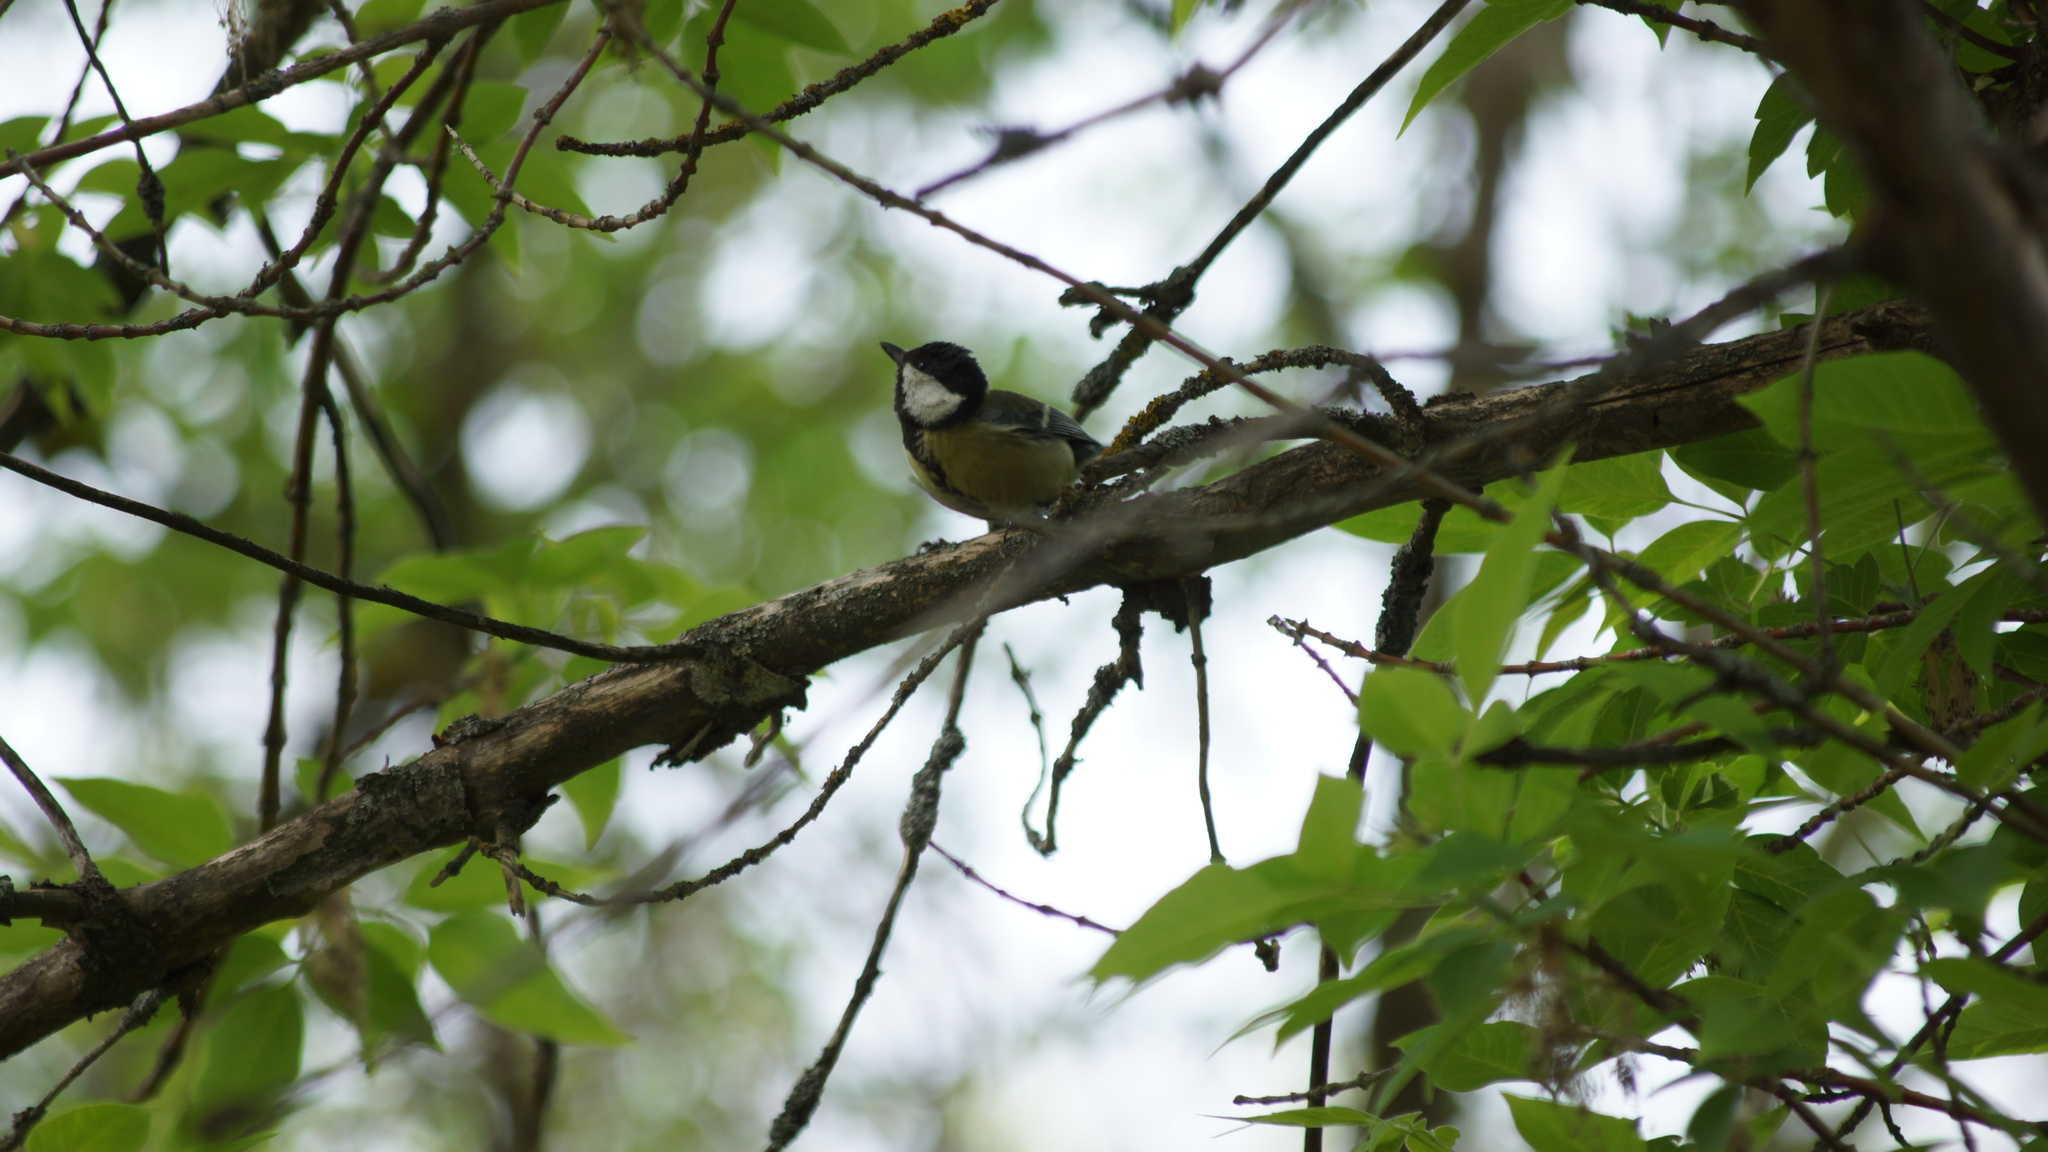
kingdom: Animalia
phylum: Chordata
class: Aves
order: Passeriformes
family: Paridae
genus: Parus
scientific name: Parus major
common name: Great tit
